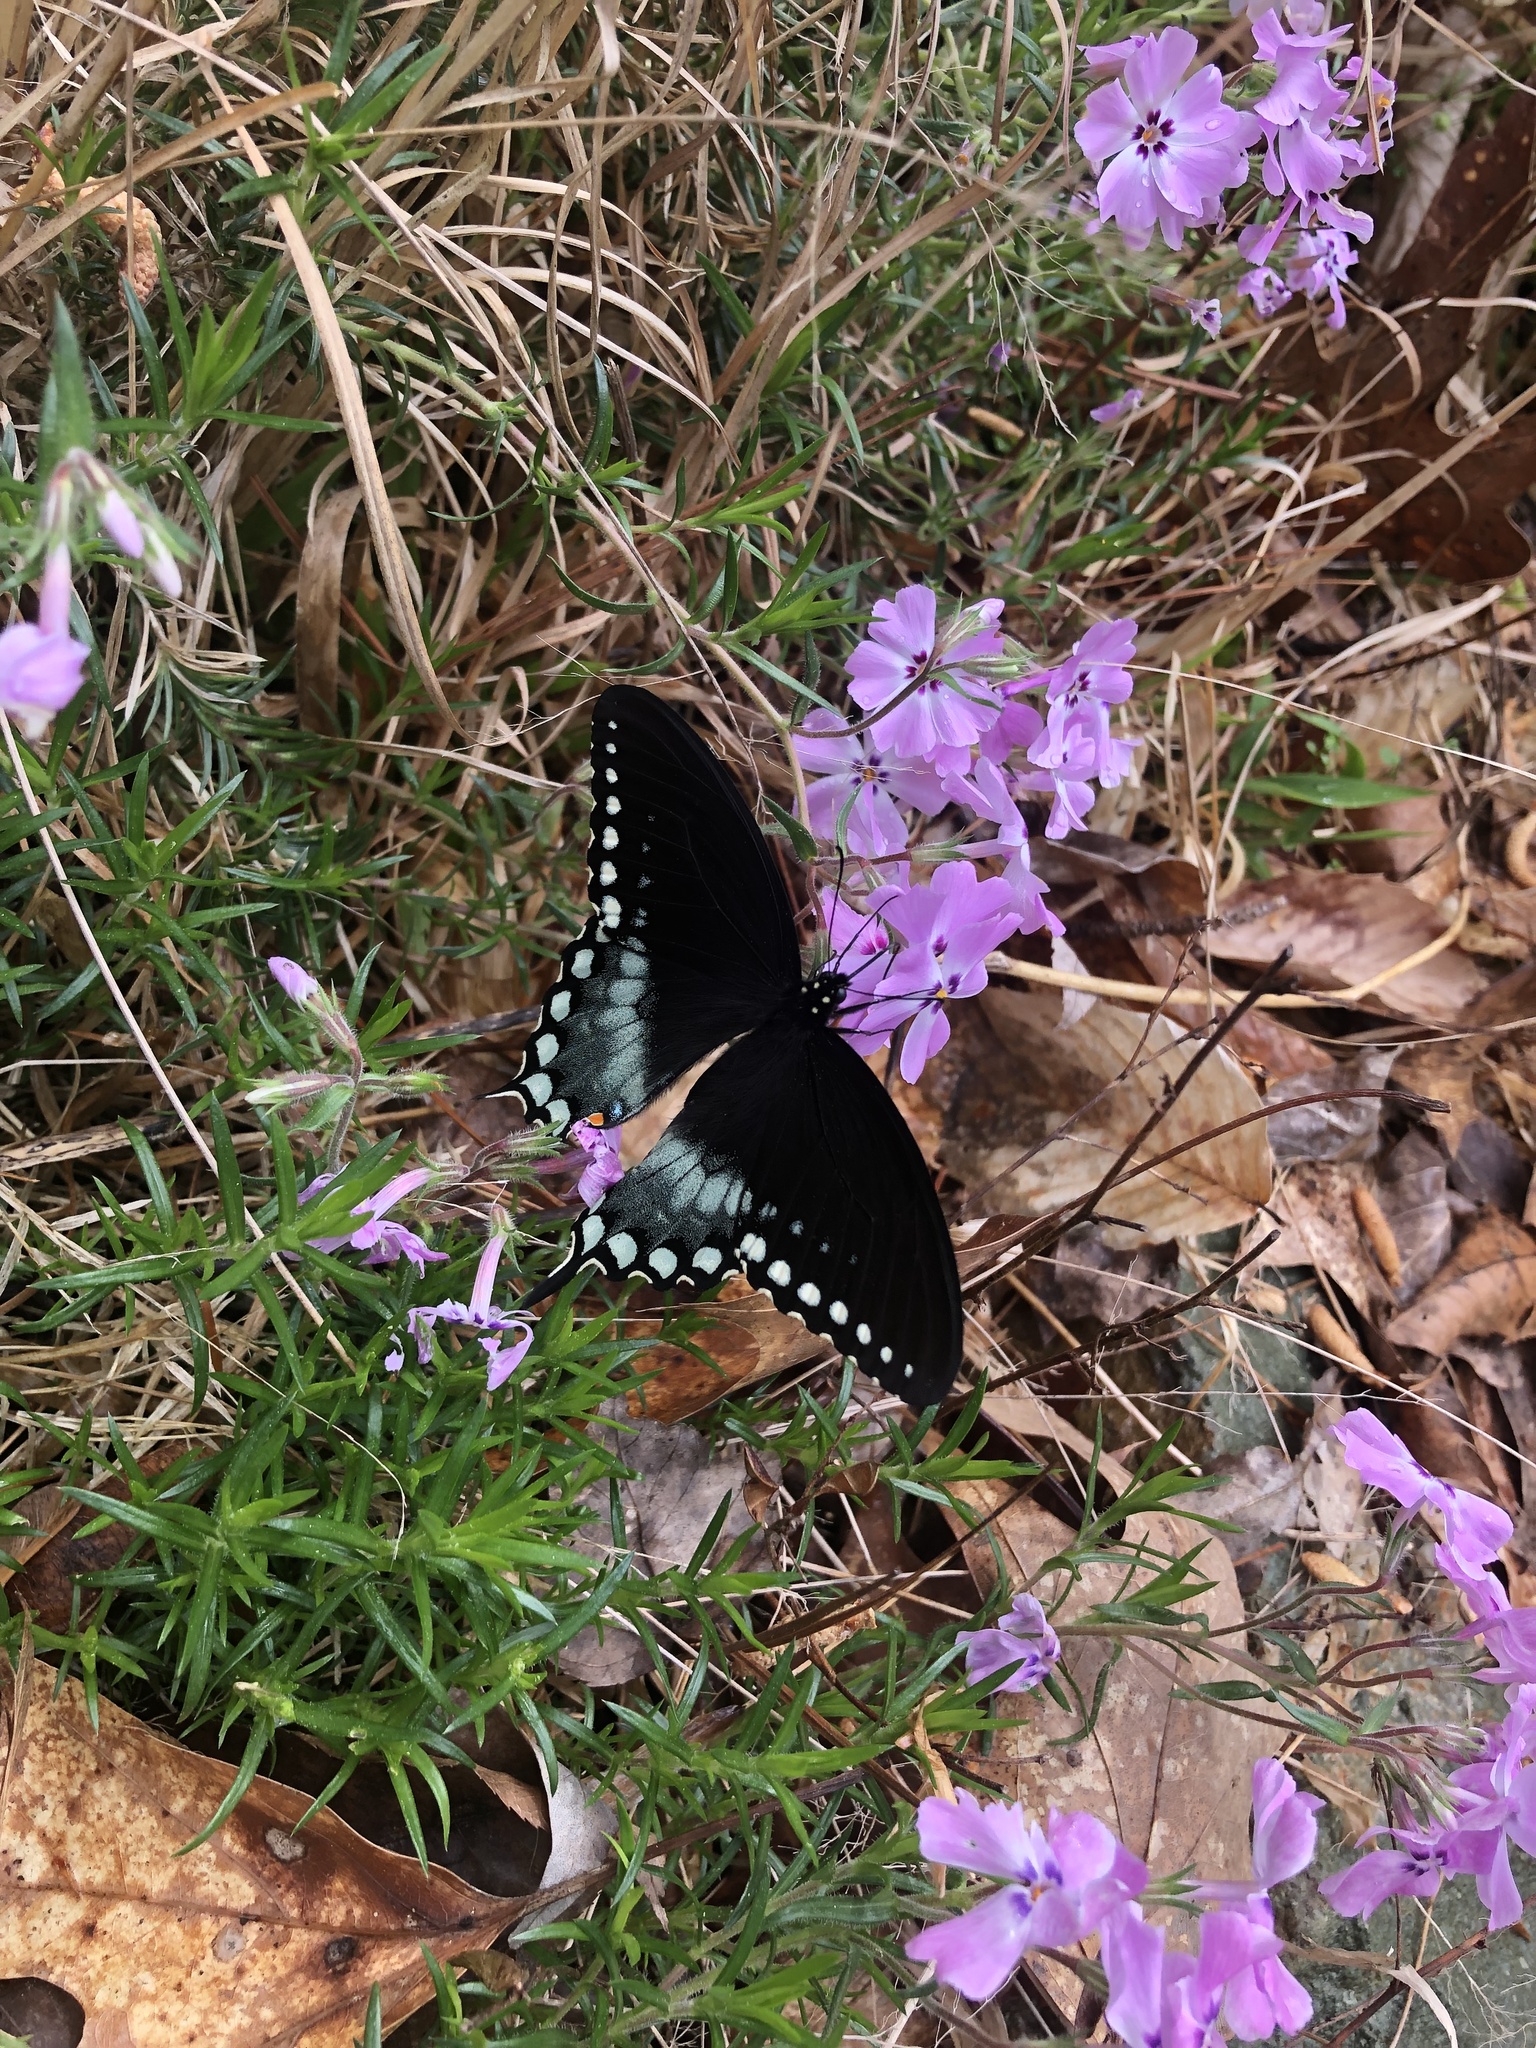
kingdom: Animalia
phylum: Arthropoda
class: Insecta
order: Lepidoptera
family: Papilionidae
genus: Papilio
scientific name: Papilio troilus
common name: Spicebush swallowtail
